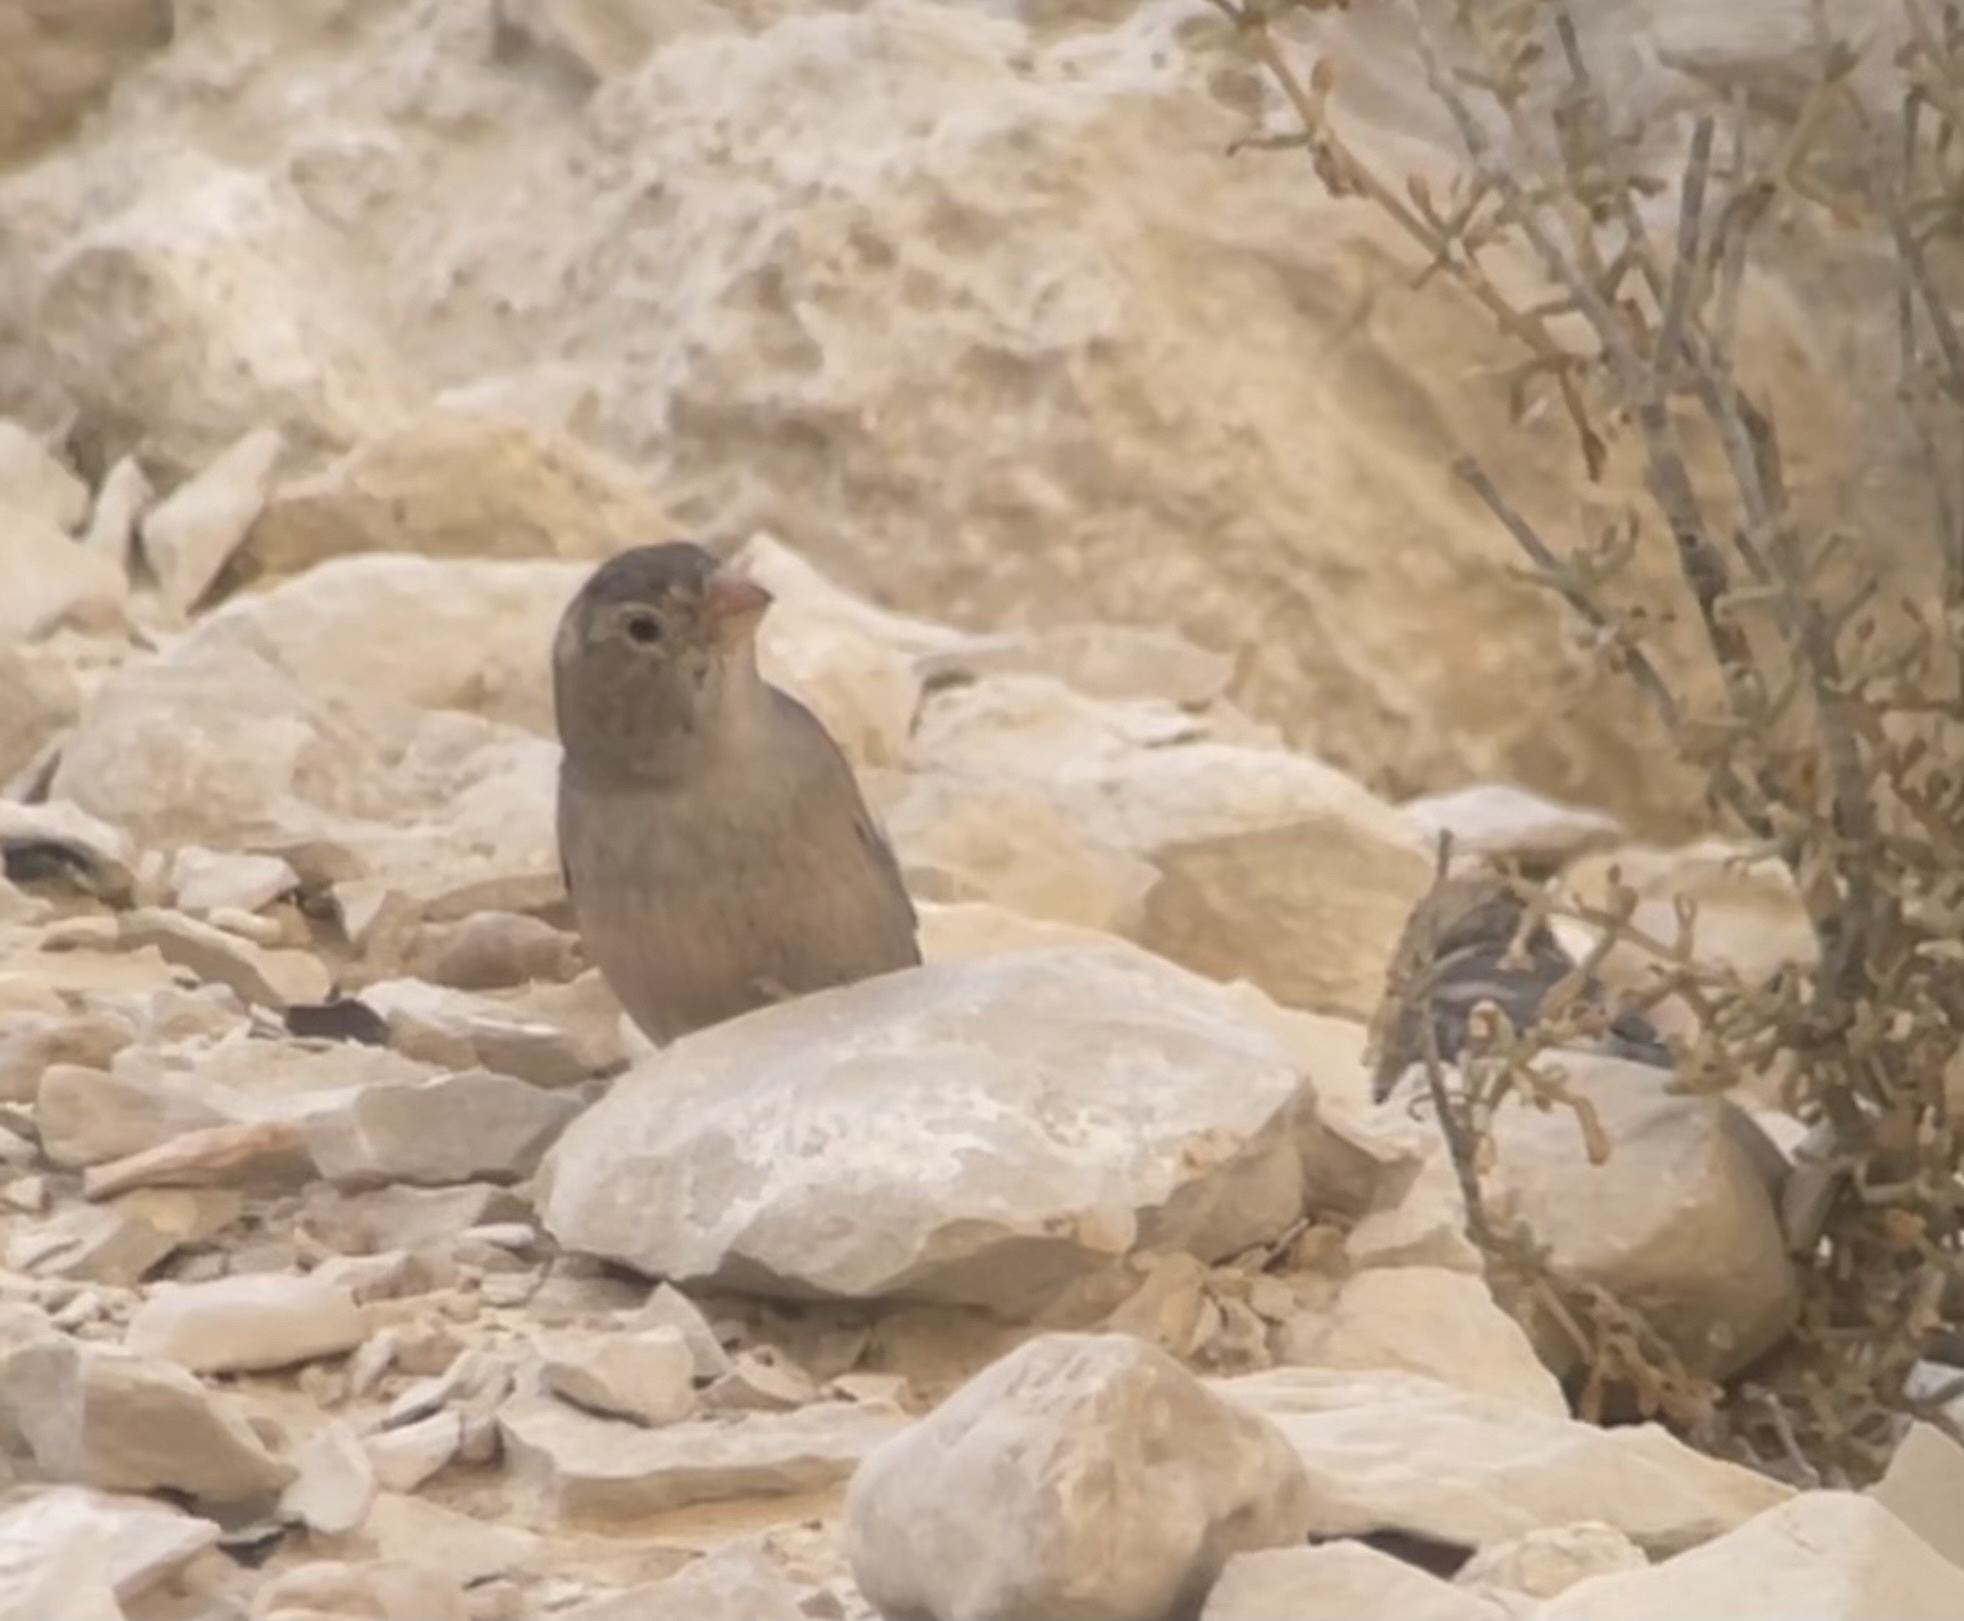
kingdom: Animalia
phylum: Chordata
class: Aves
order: Passeriformes
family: Fringillidae
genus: Bucanetes
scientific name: Bucanetes githagineus
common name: Trumpeter finch
